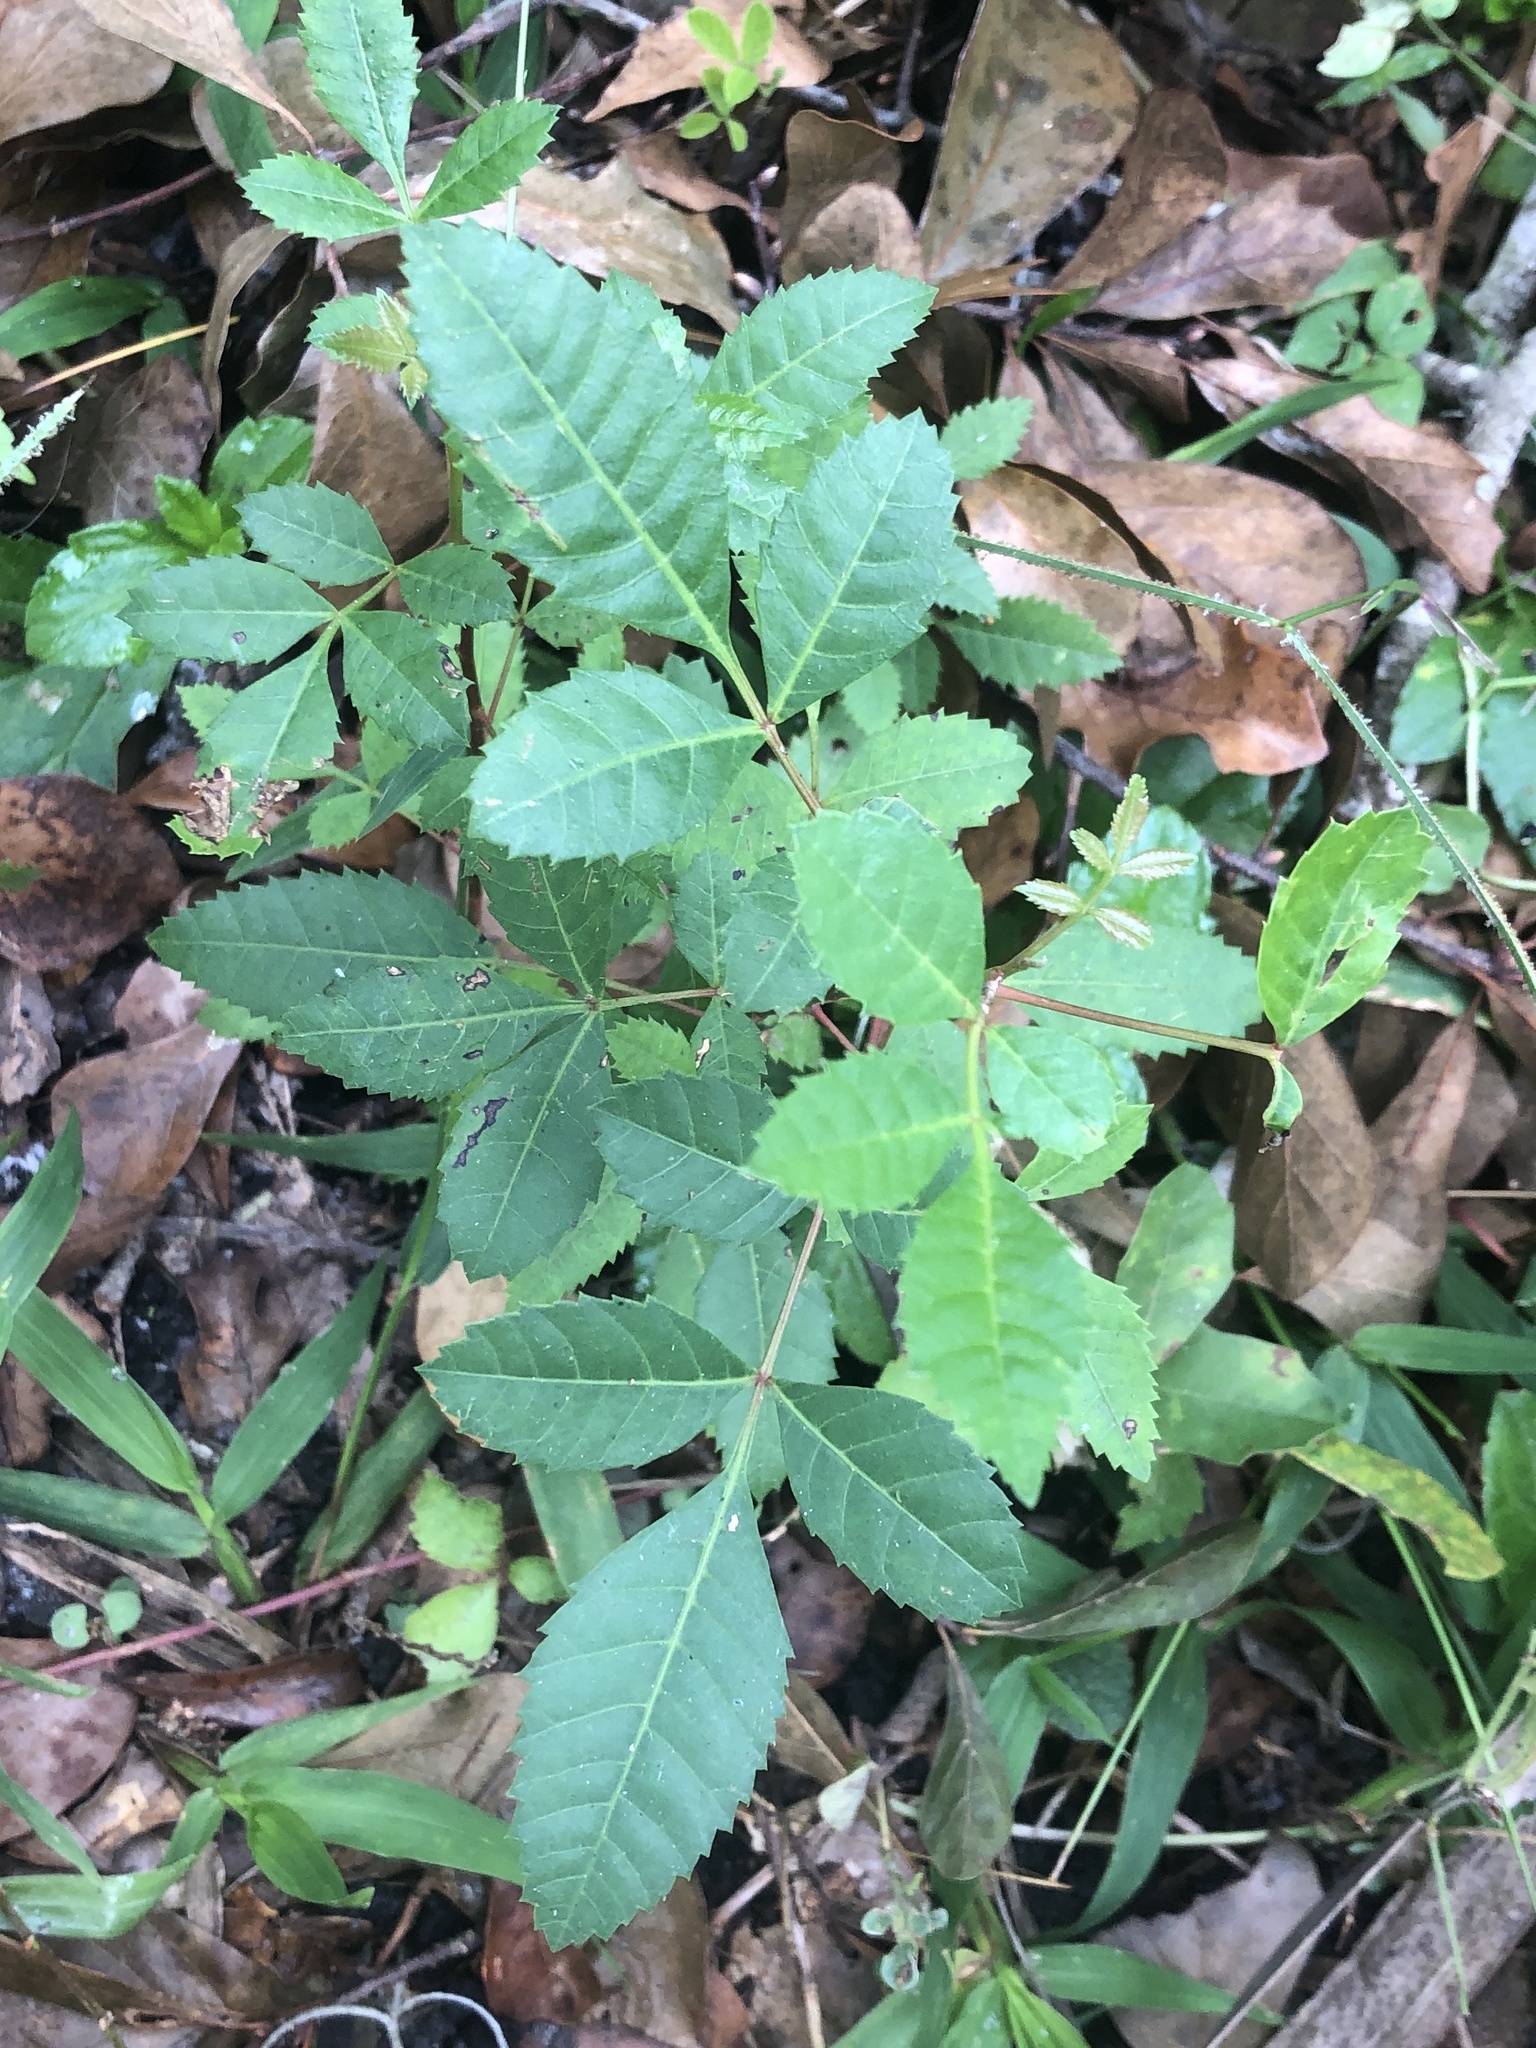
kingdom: Plantae
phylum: Tracheophyta
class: Magnoliopsida
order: Sapindales
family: Anacardiaceae
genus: Schinus
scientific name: Schinus terebinthifolia
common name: Brazilian peppertree
